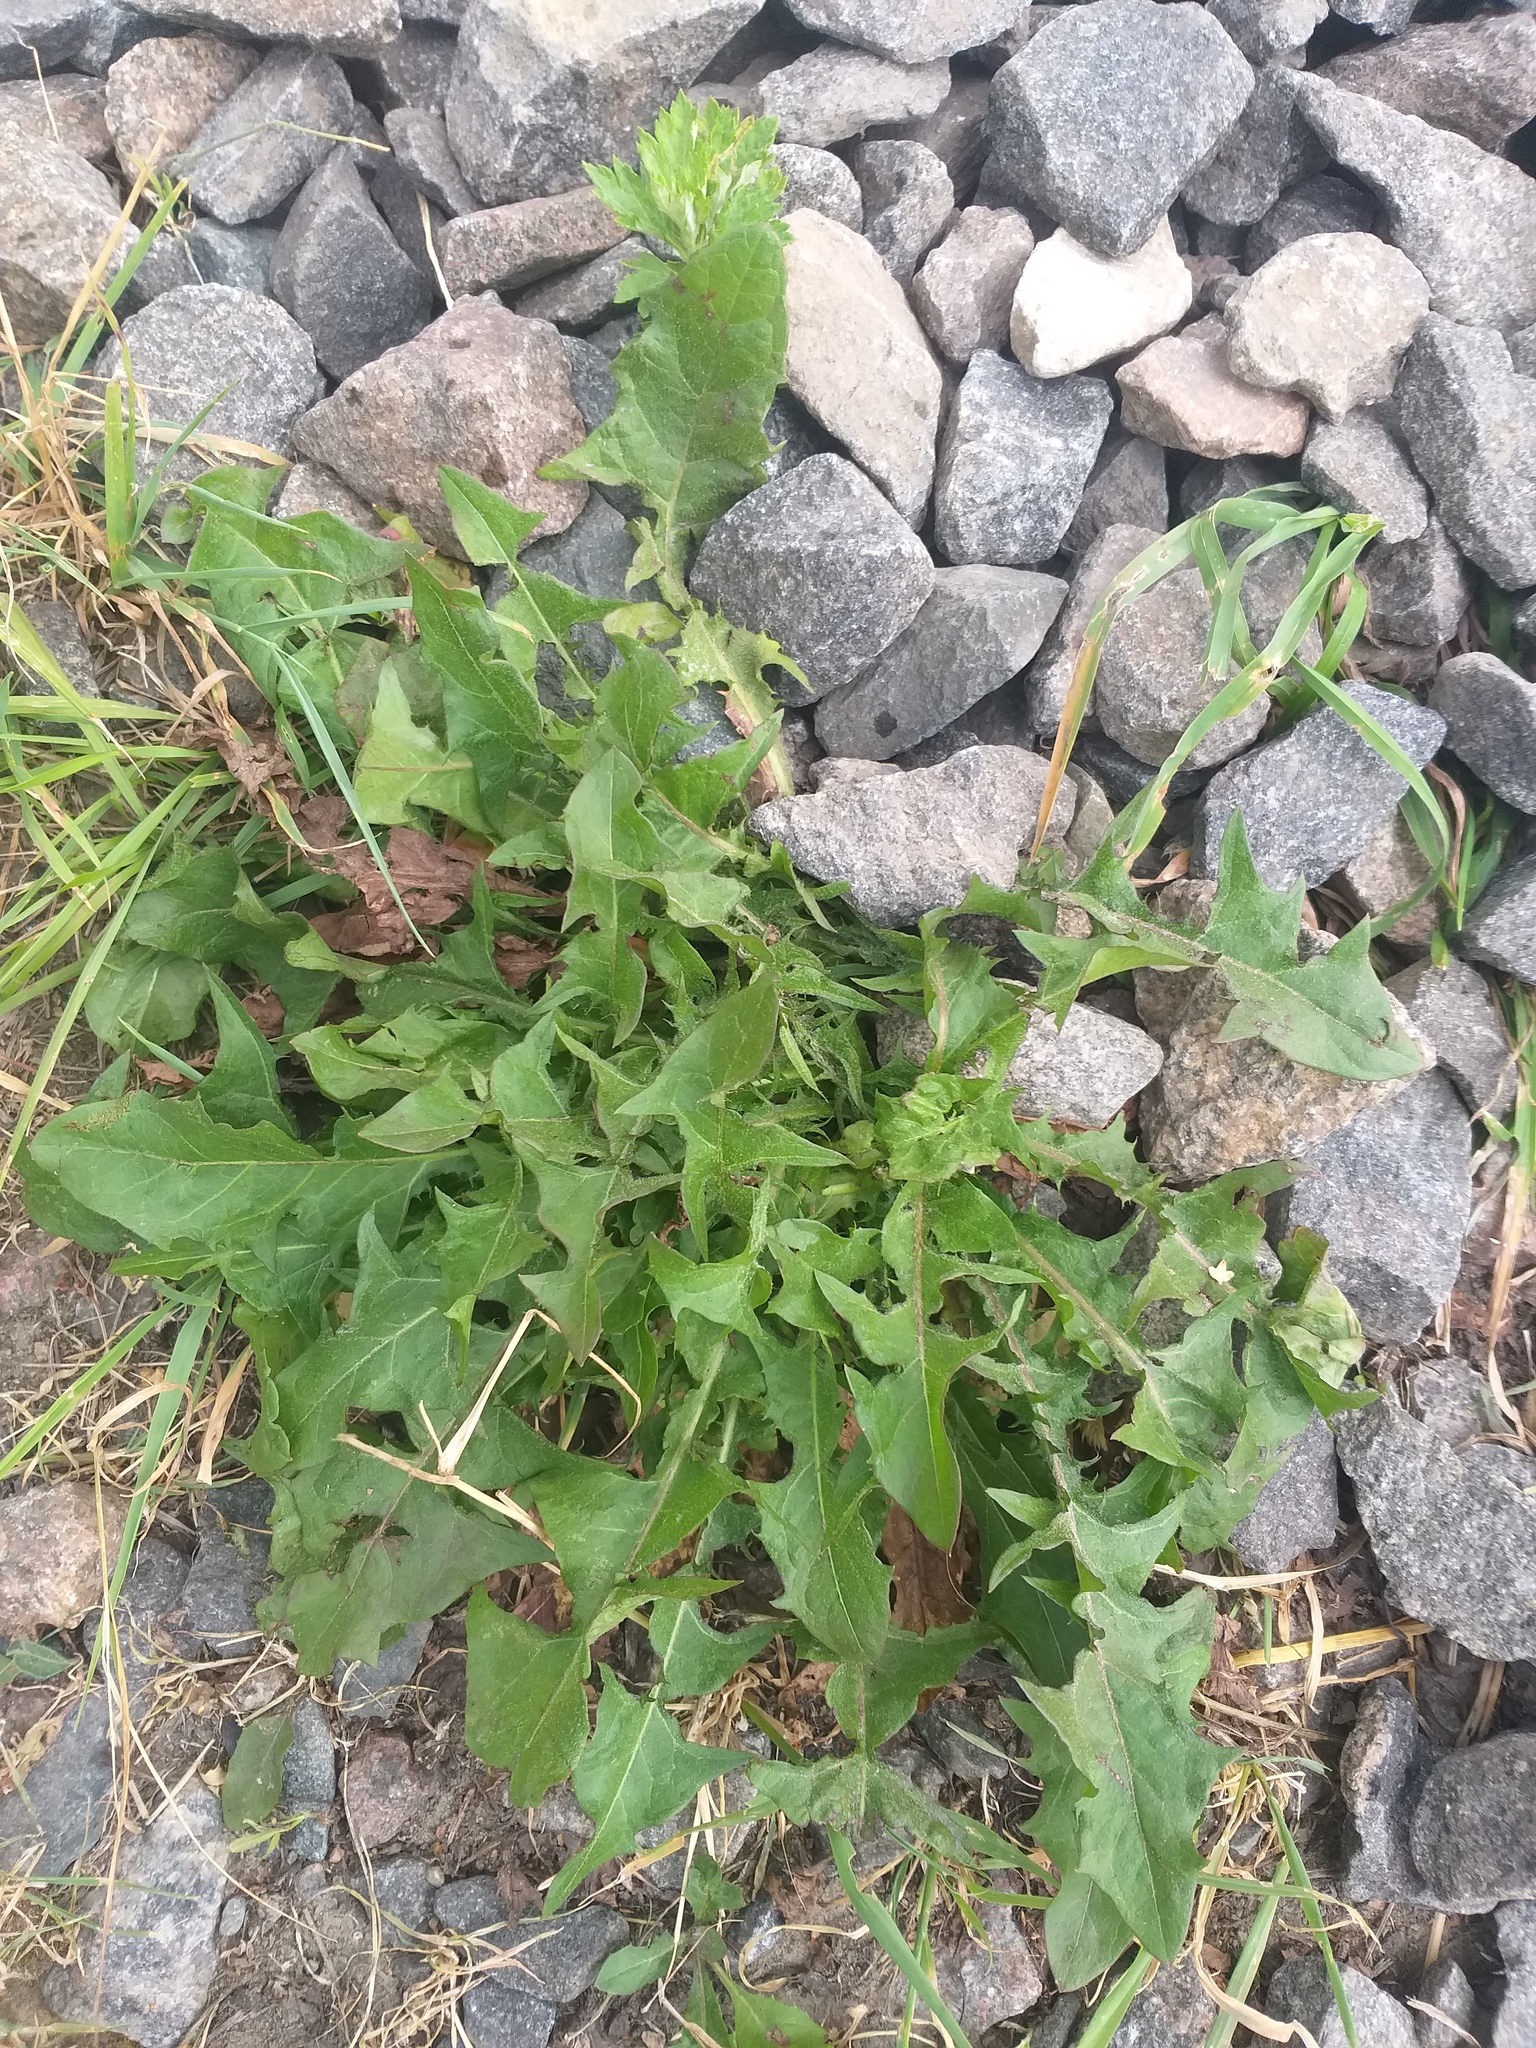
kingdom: Plantae
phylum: Tracheophyta
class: Magnoliopsida
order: Asterales
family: Asteraceae
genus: Taraxacum
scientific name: Taraxacum officinale
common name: Common dandelion
